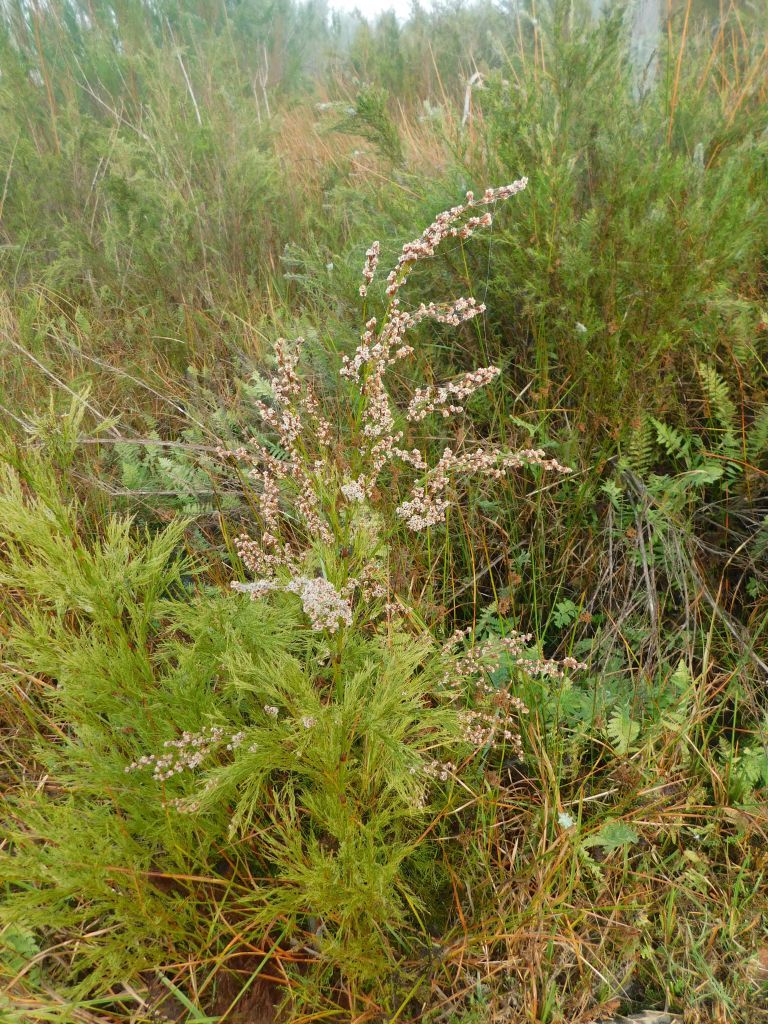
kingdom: Plantae
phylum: Tracheophyta
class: Liliopsida
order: Poales
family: Restionaceae
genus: Restio
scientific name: Restio paniculatus
